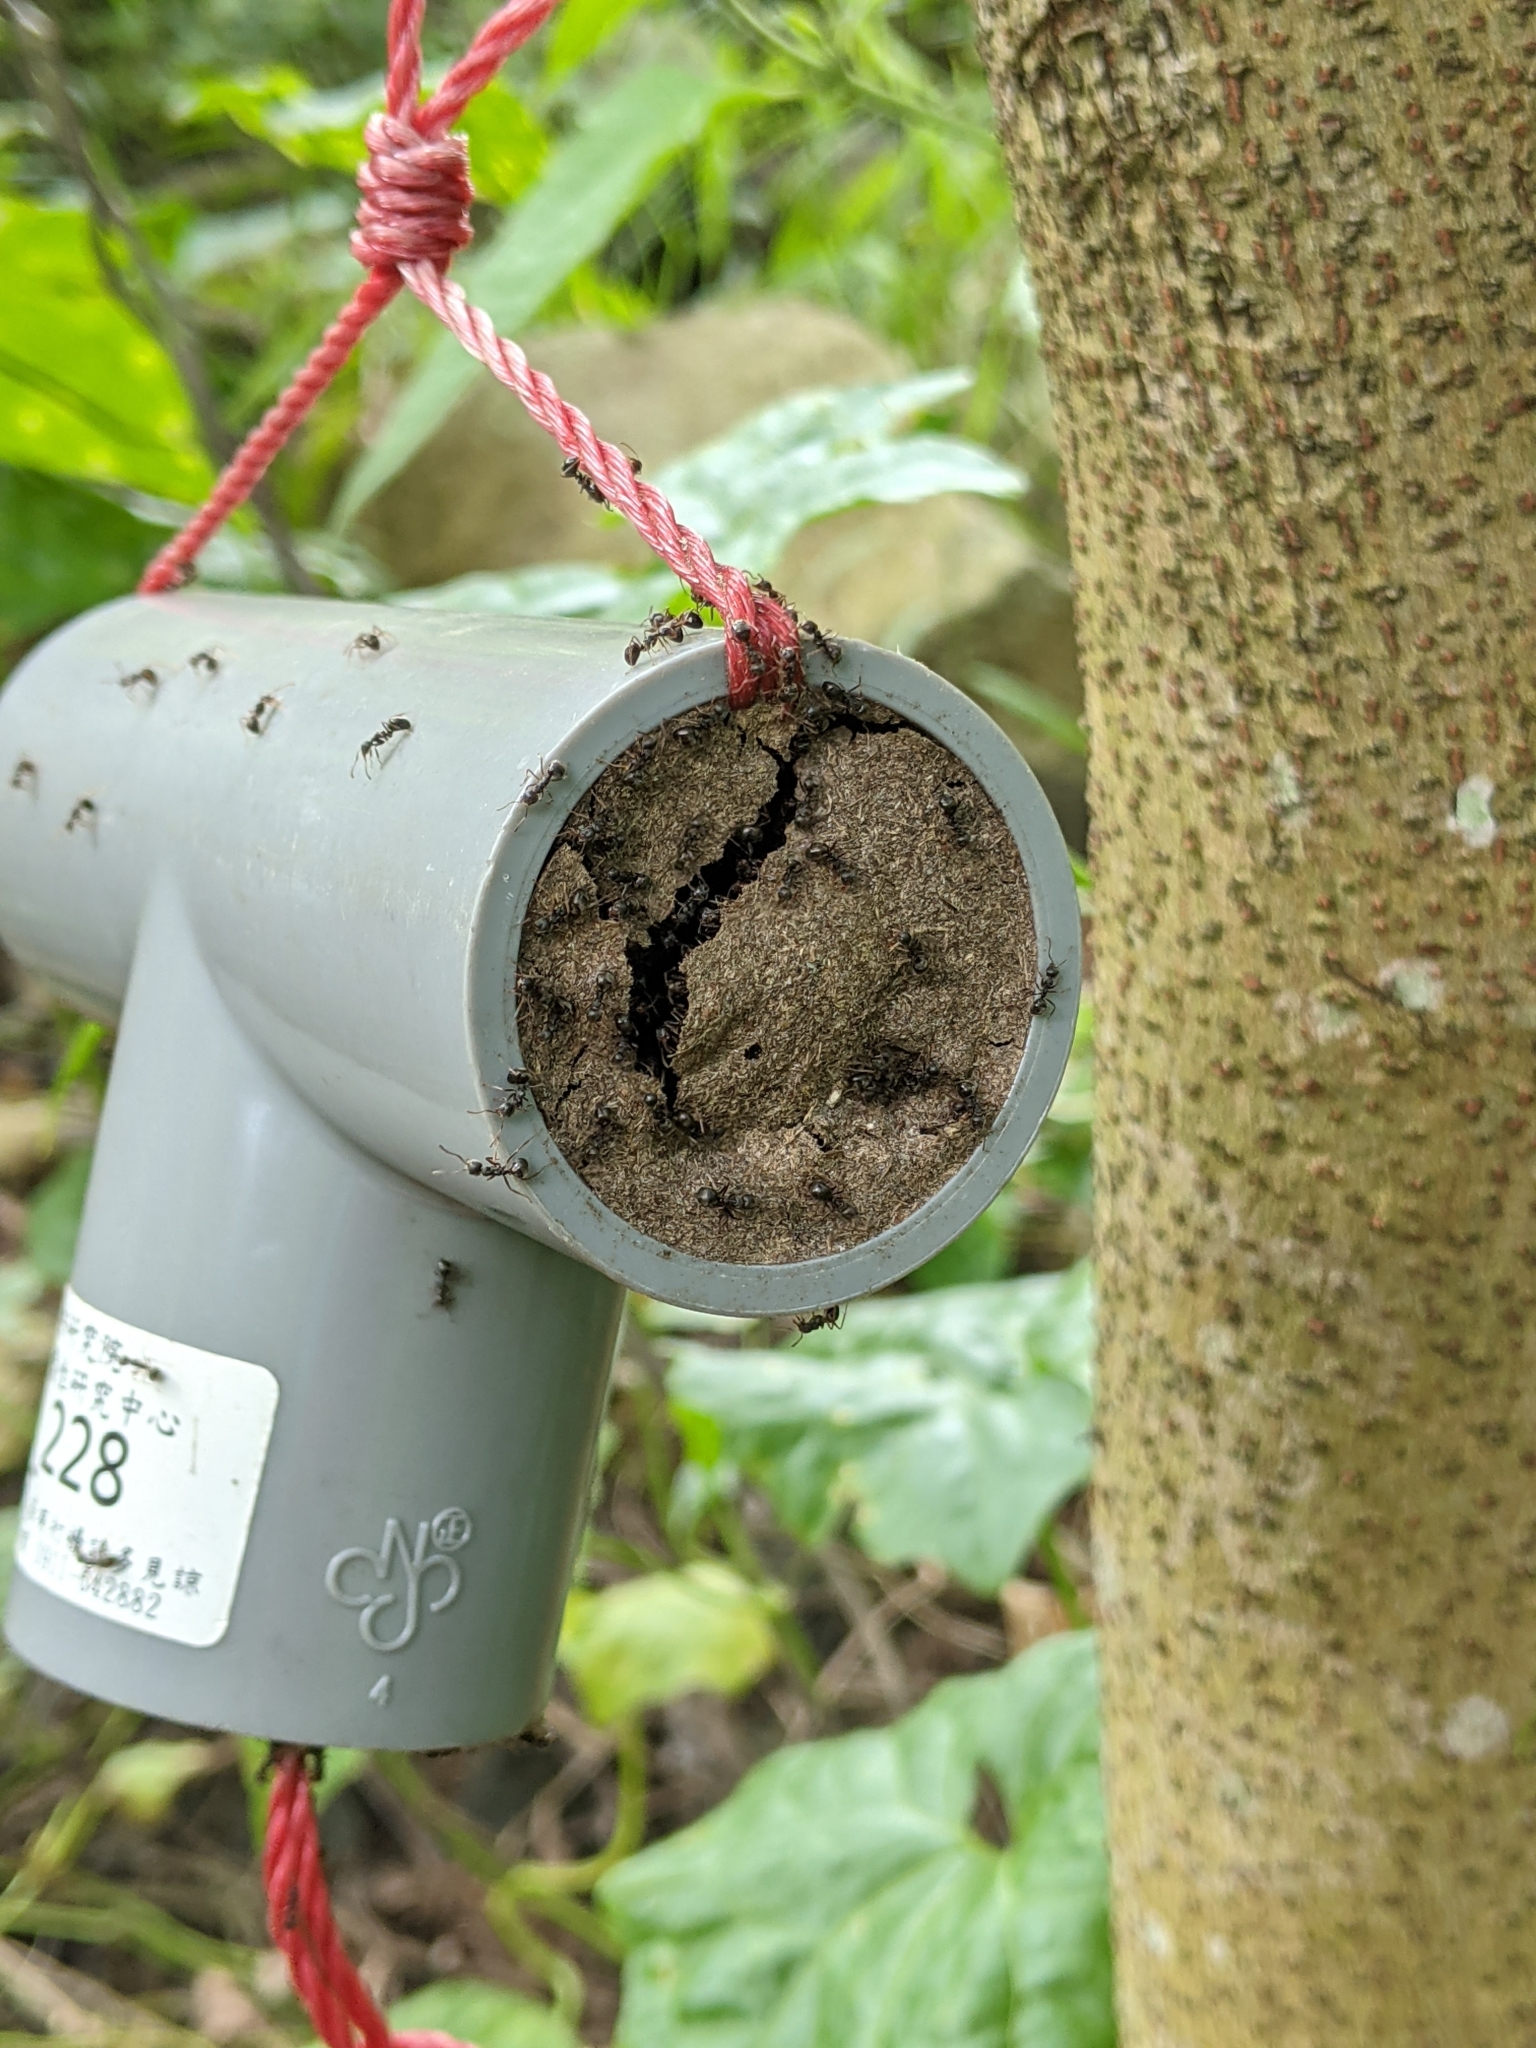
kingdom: Animalia
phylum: Arthropoda
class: Insecta
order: Hymenoptera
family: Formicidae
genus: Dolichoderus
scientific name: Dolichoderus thoracicus
